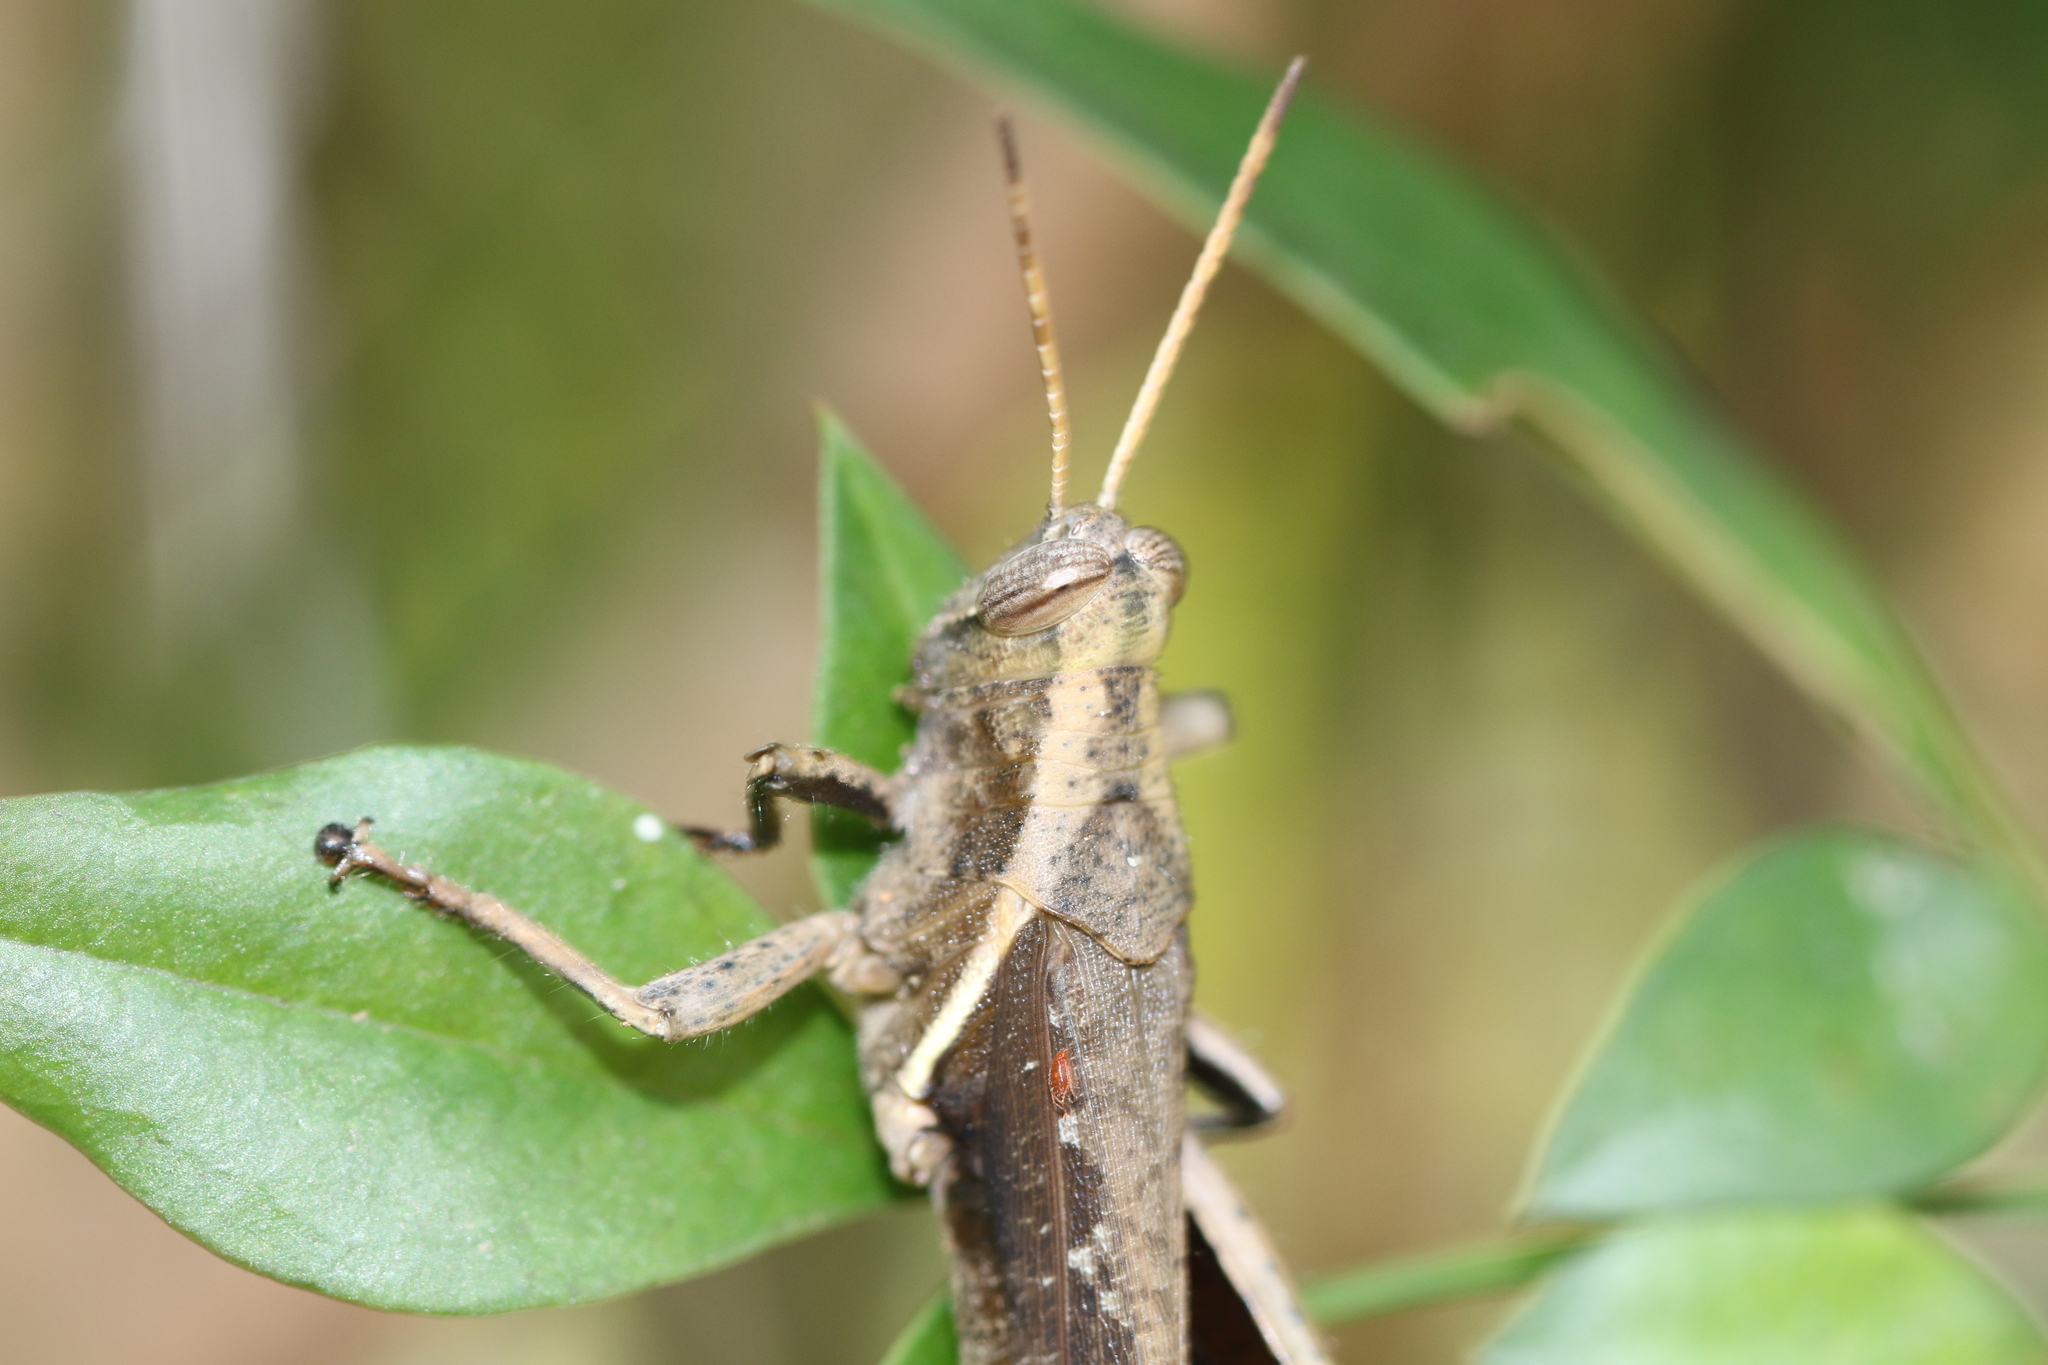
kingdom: Animalia
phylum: Arthropoda
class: Insecta
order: Orthoptera
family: Acrididae
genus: Abracris
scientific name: Abracris flavolineata
